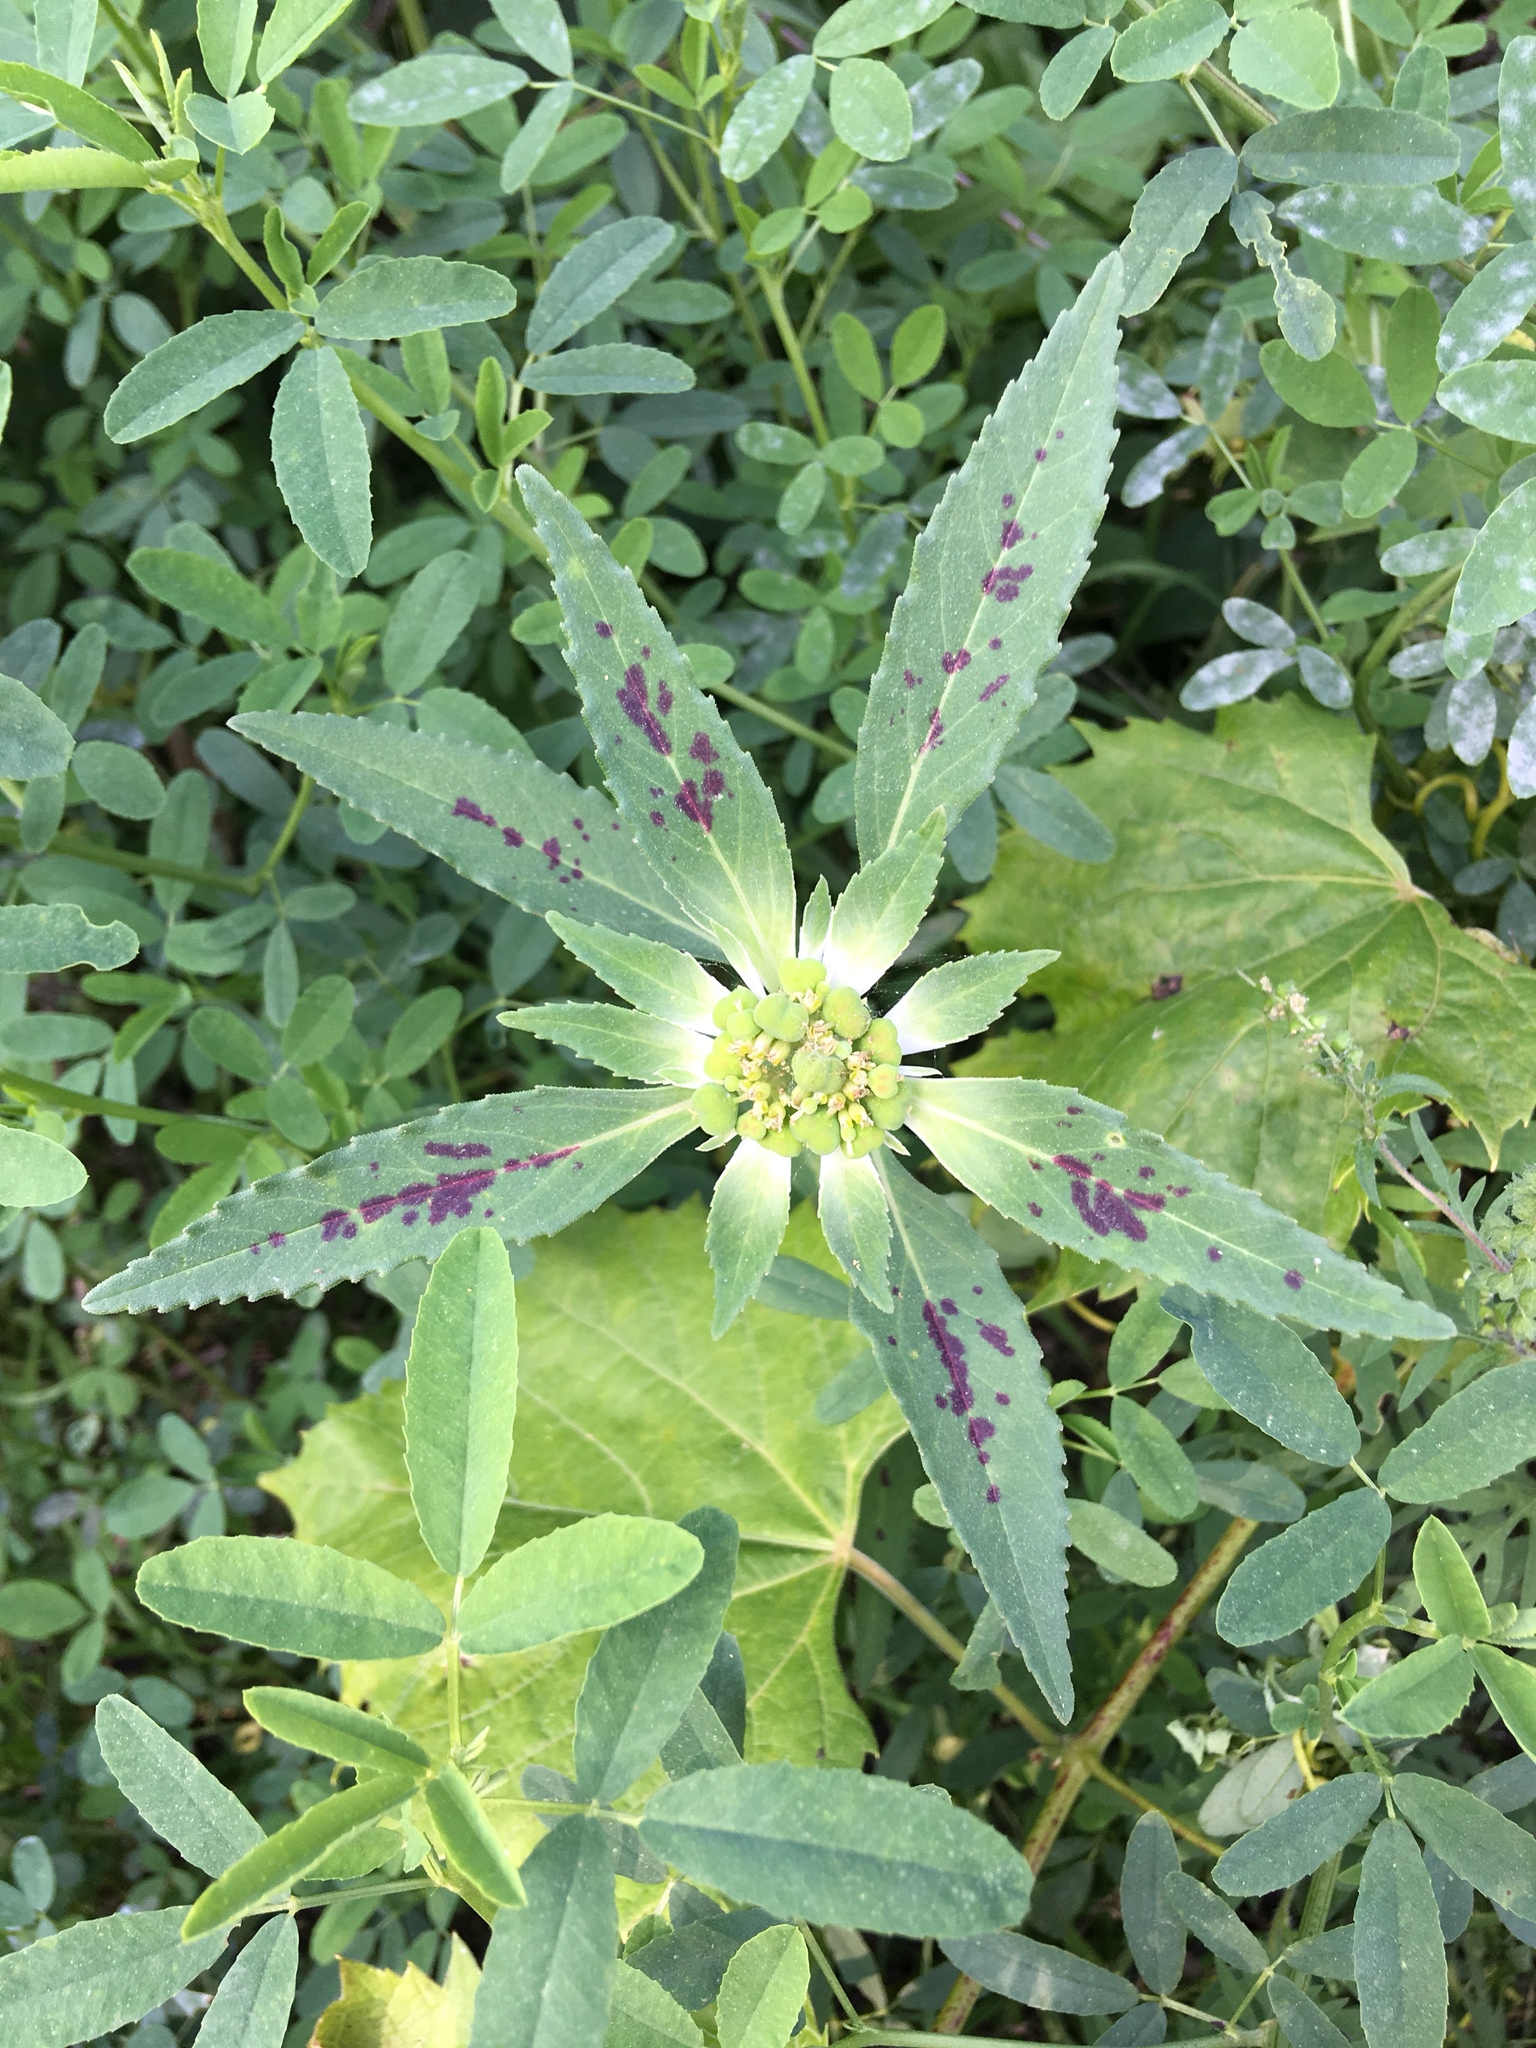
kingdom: Plantae
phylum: Tracheophyta
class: Magnoliopsida
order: Malpighiales
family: Euphorbiaceae
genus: Euphorbia
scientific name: Euphorbia dentata
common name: Dentate spurge
